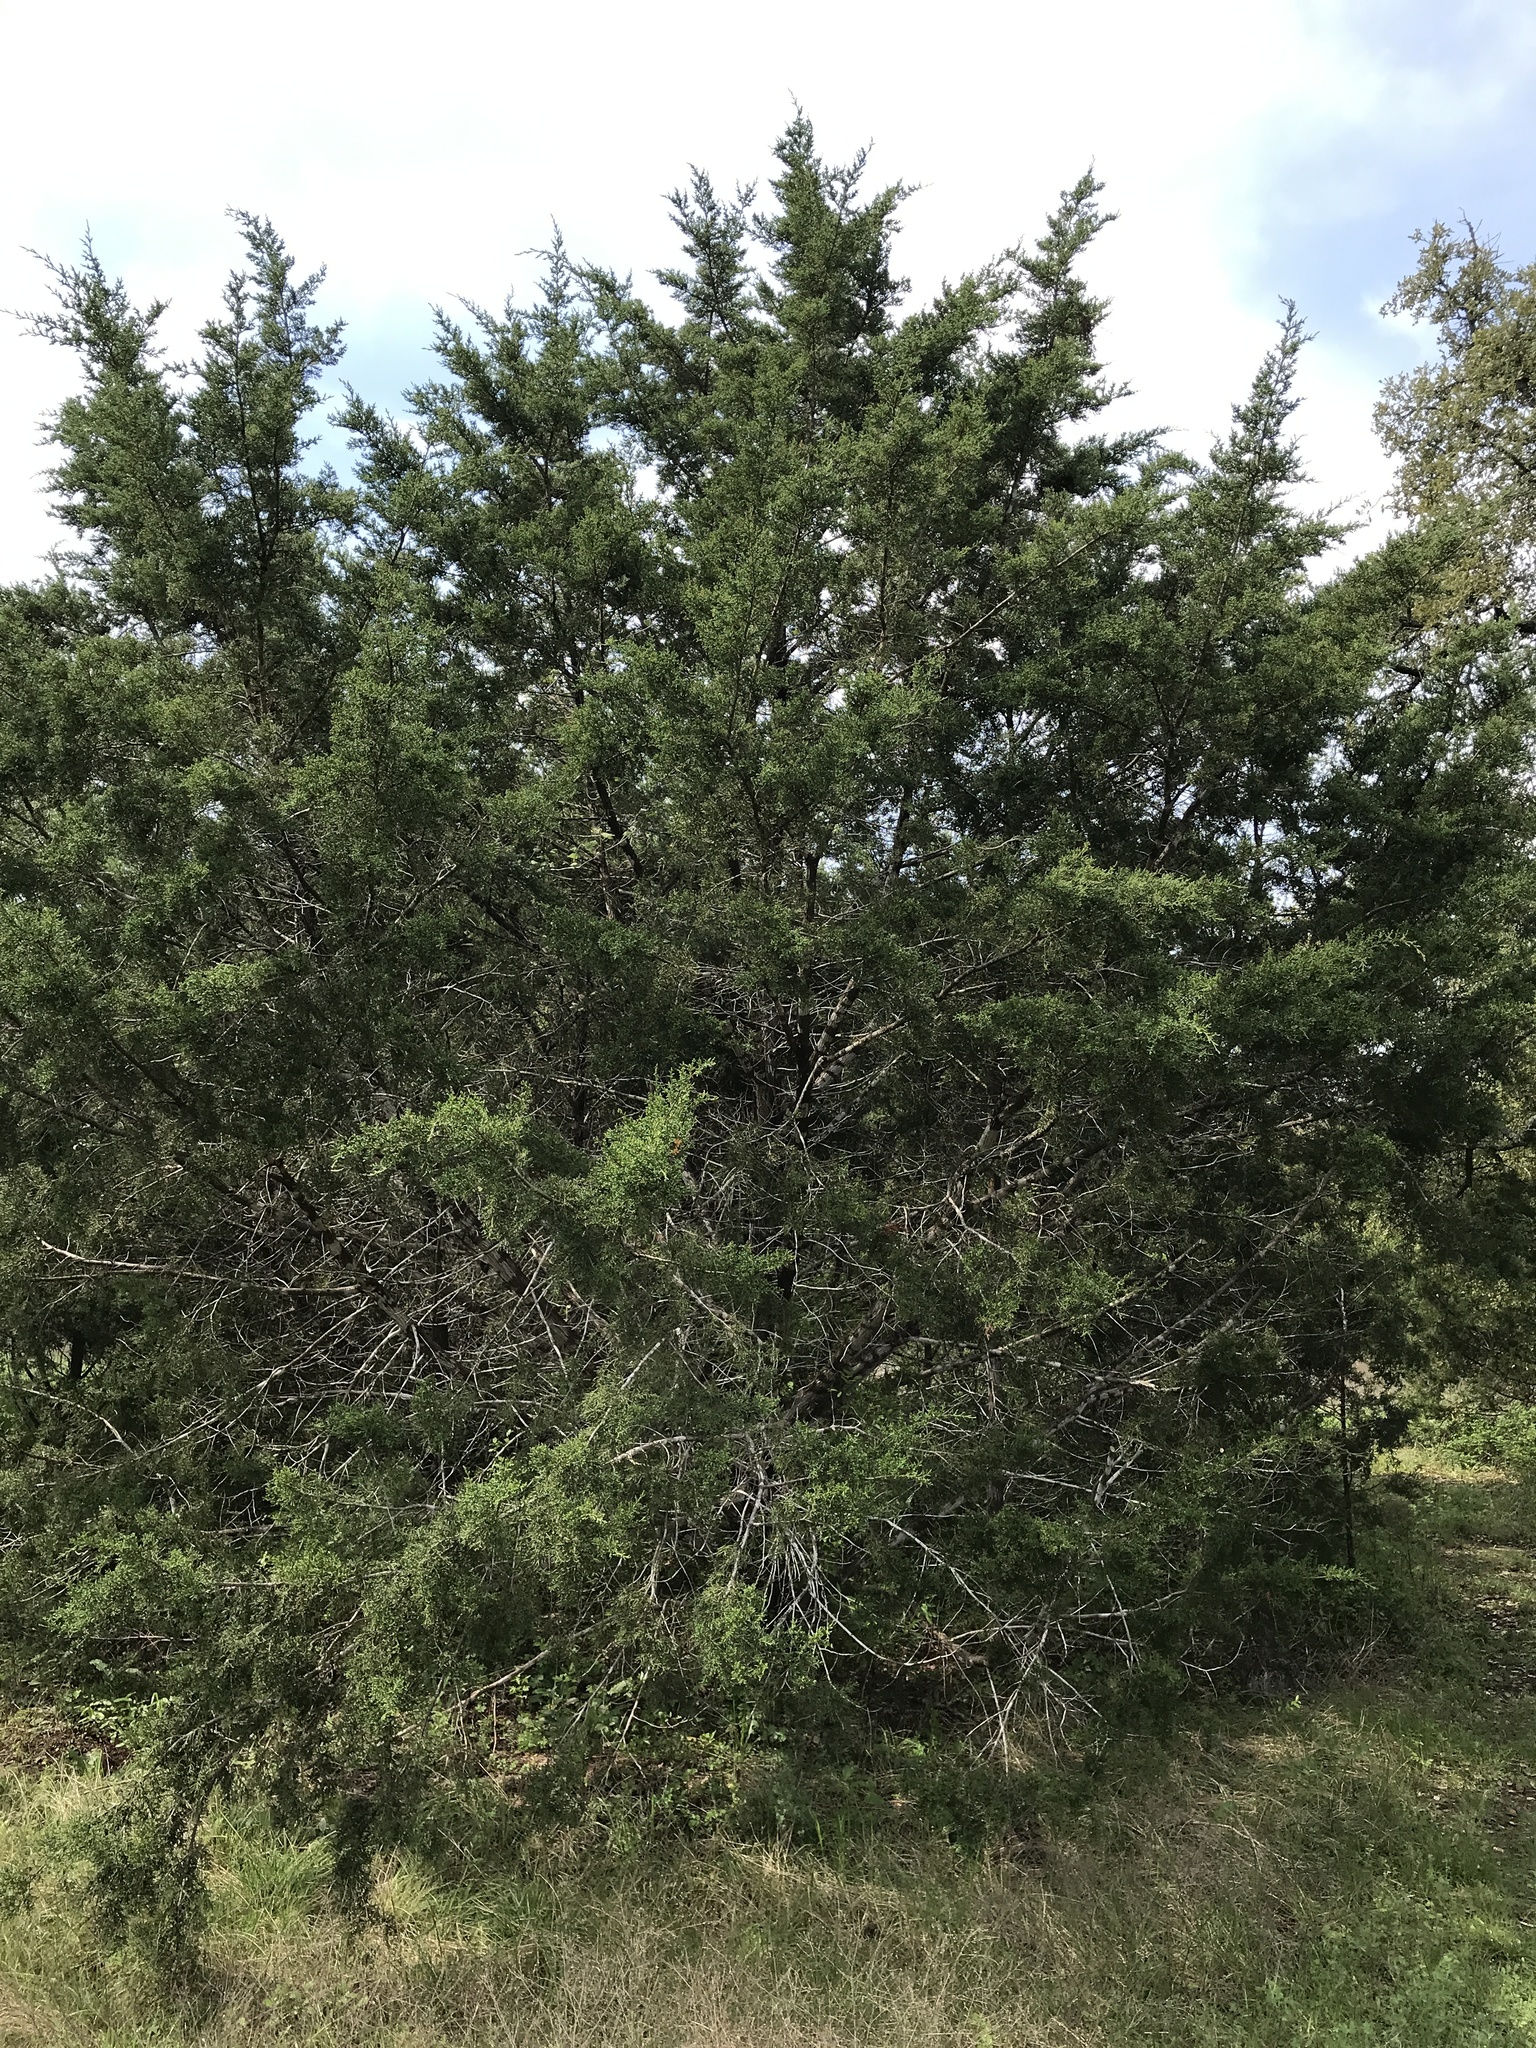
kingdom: Plantae
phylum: Tracheophyta
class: Pinopsida
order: Pinales
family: Cupressaceae
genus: Juniperus
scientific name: Juniperus ashei
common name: Mexican juniper
